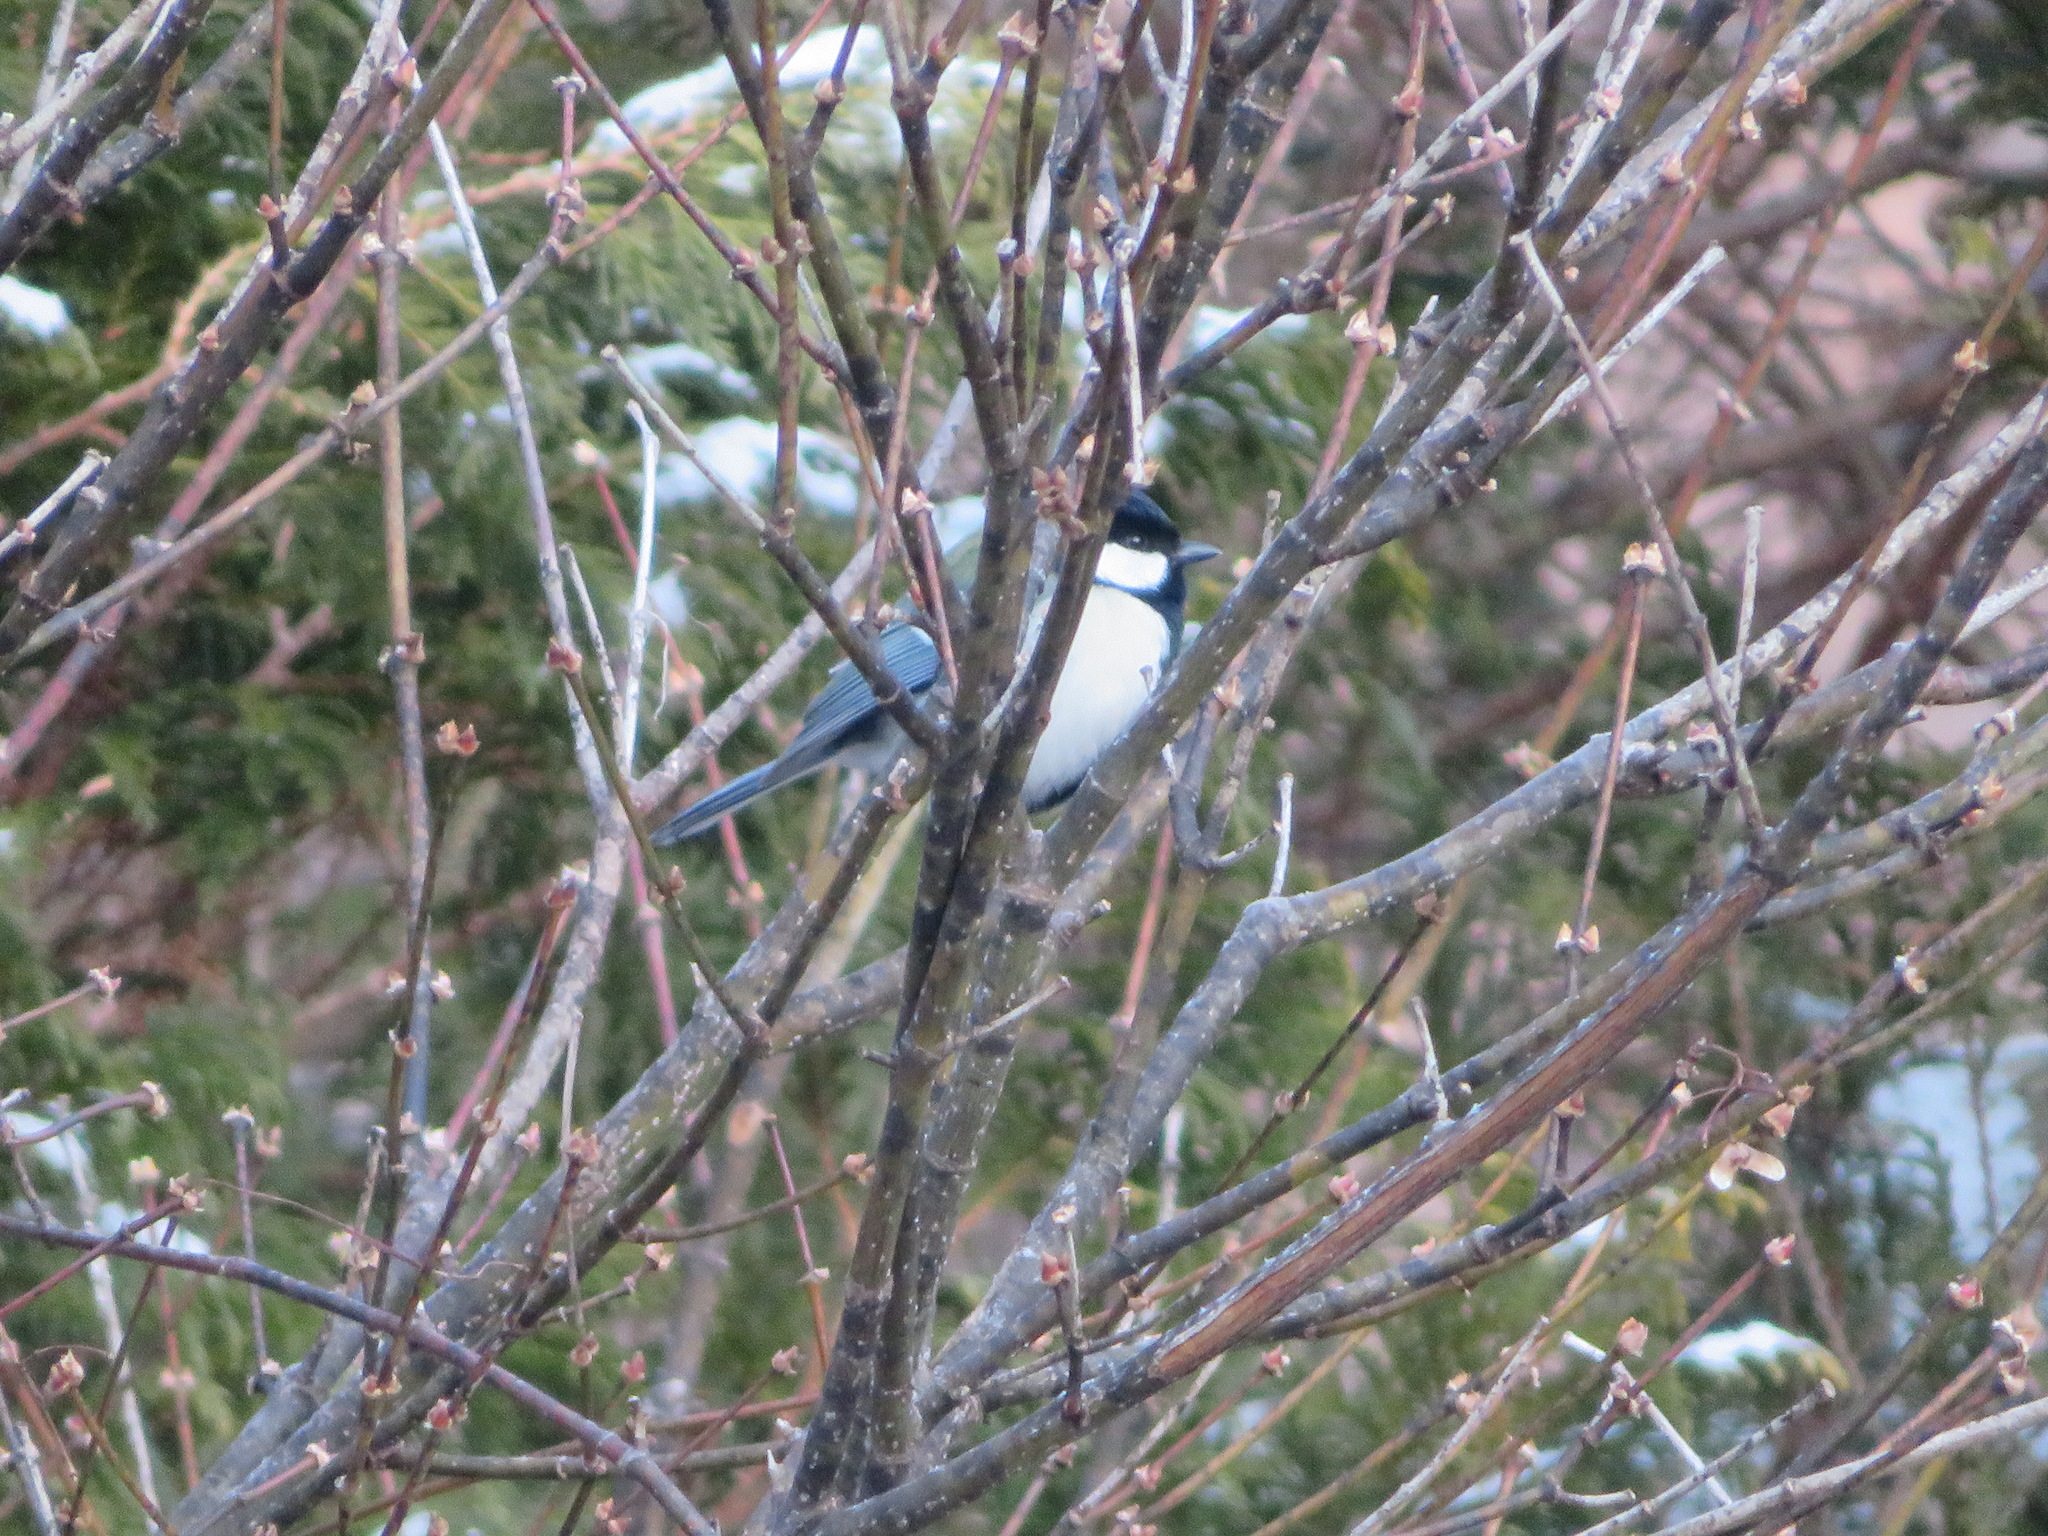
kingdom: Animalia
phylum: Chordata
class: Aves
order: Passeriformes
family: Paridae
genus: Parus
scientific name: Parus minor
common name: Japanese tit
